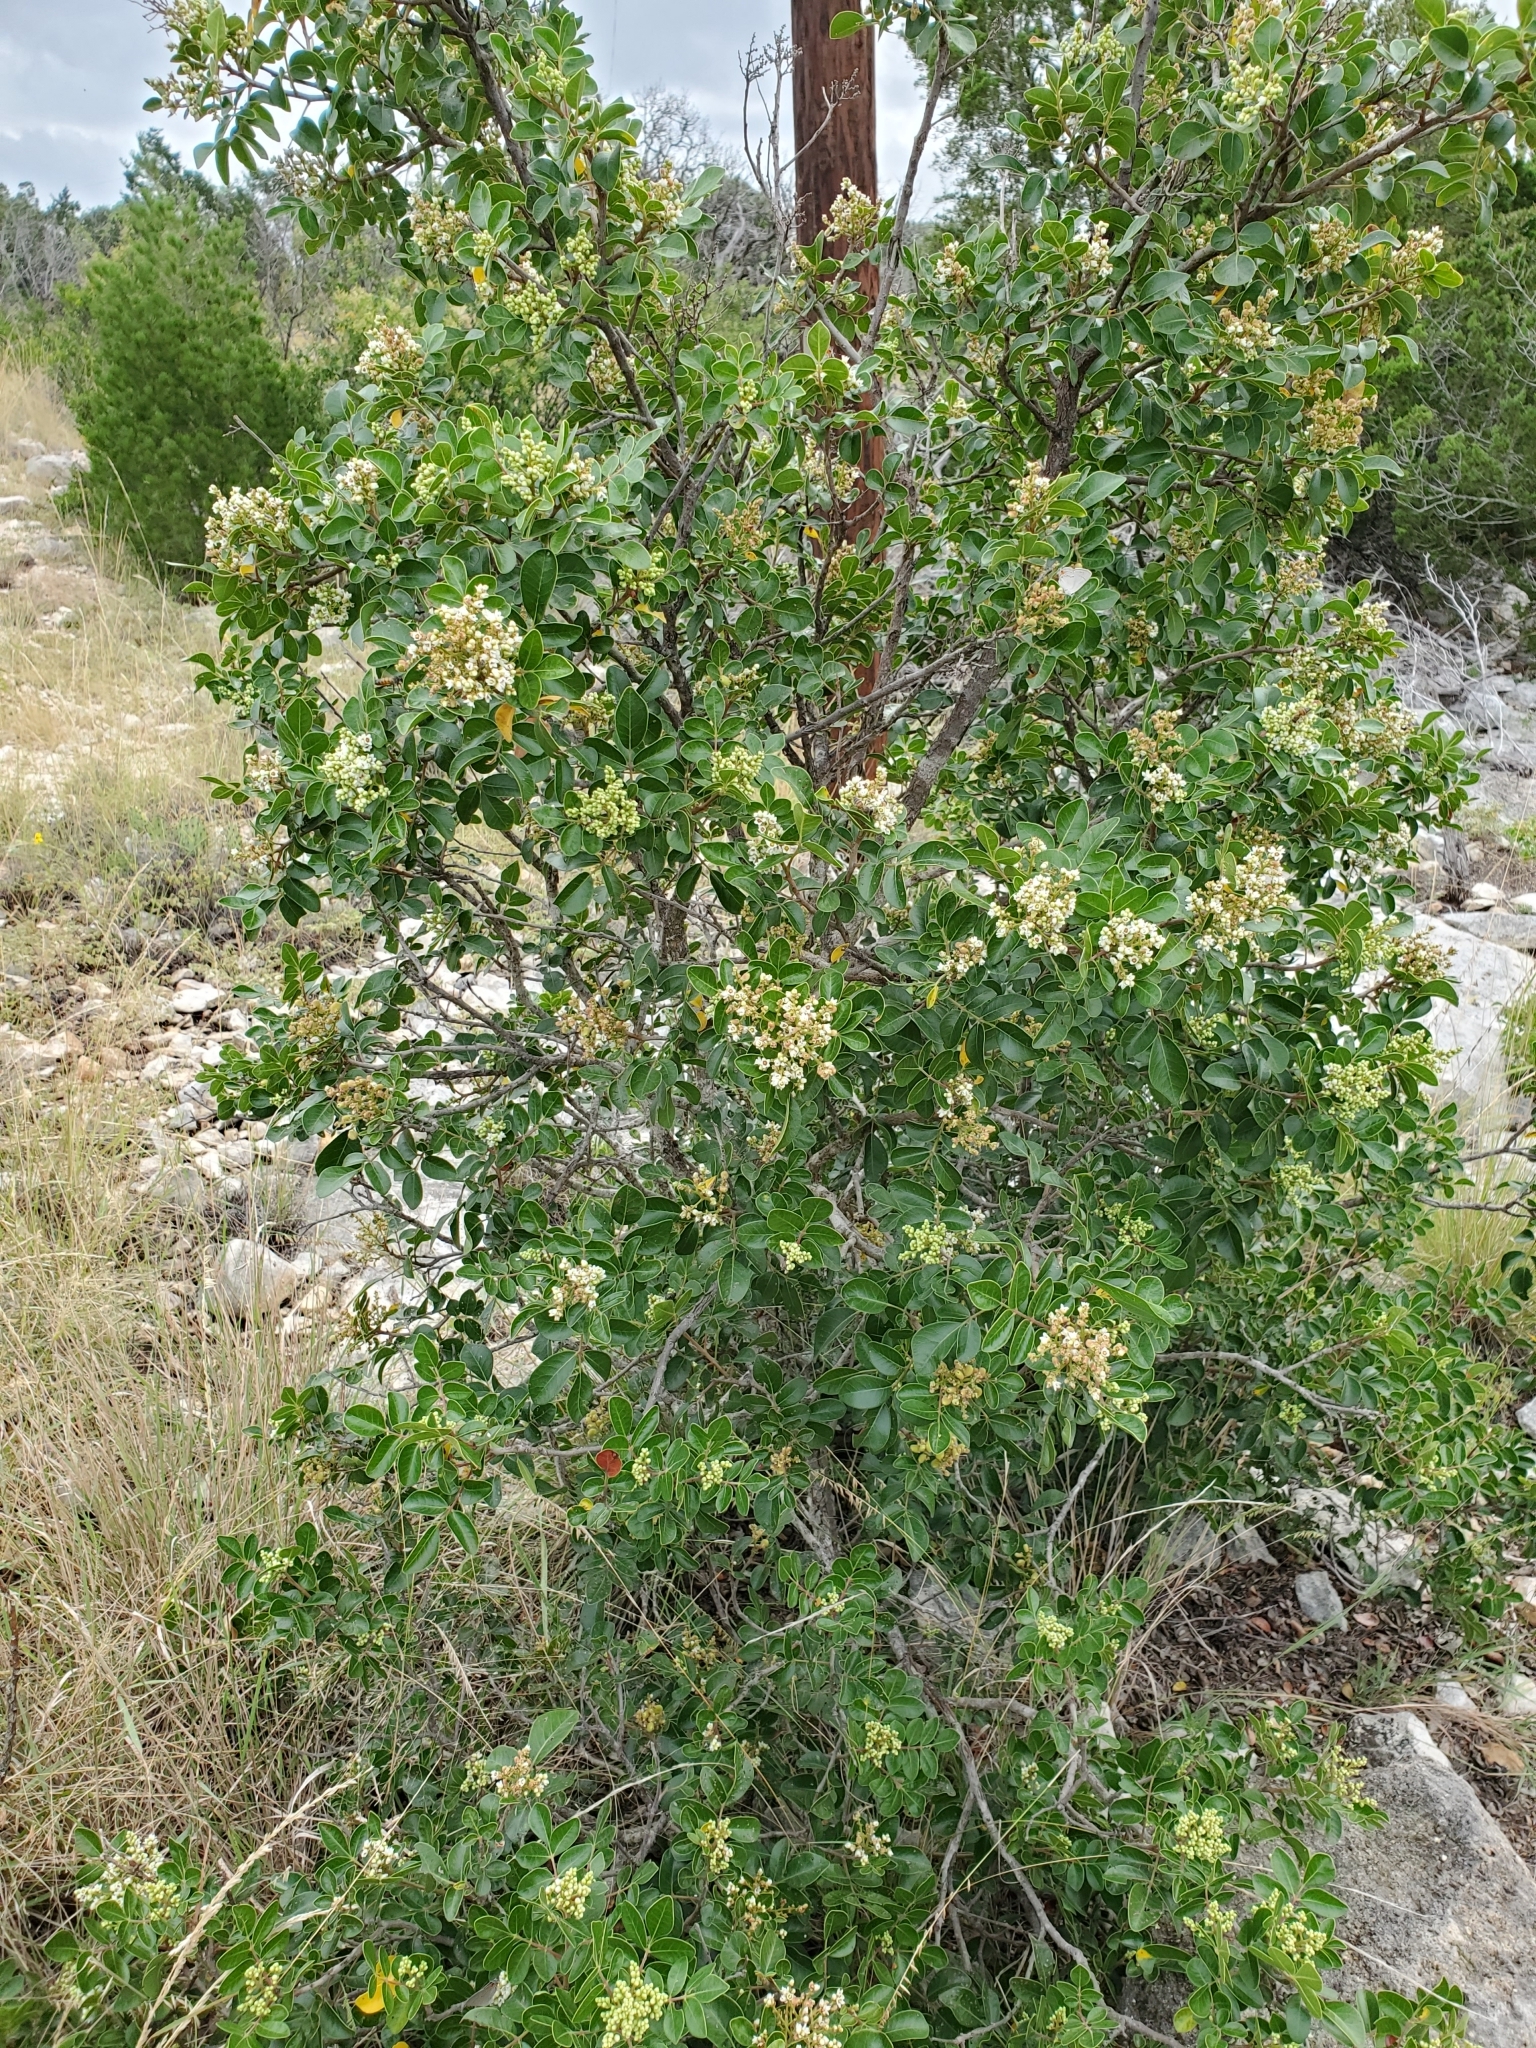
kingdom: Plantae
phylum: Tracheophyta
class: Magnoliopsida
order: Sapindales
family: Anacardiaceae
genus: Rhus
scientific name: Rhus virens
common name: Evergreen sumac
